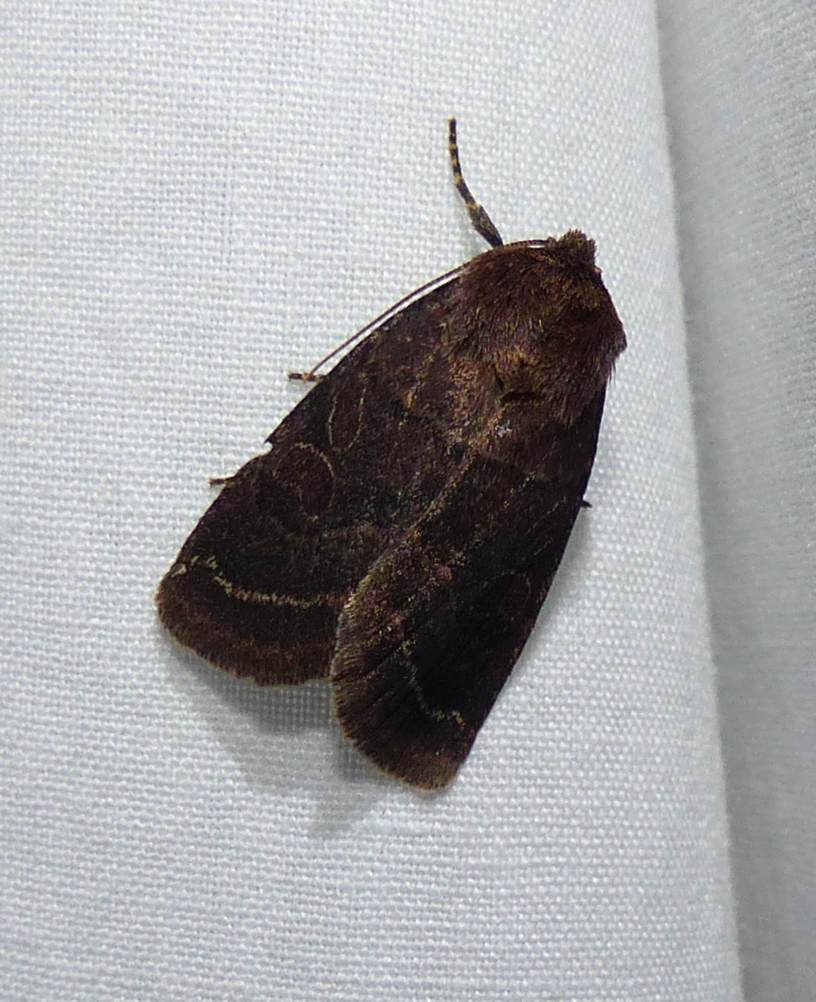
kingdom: Animalia
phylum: Arthropoda
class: Insecta
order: Lepidoptera
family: Noctuidae
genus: Orthodes
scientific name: Orthodes cynica
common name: Cynical quaker
